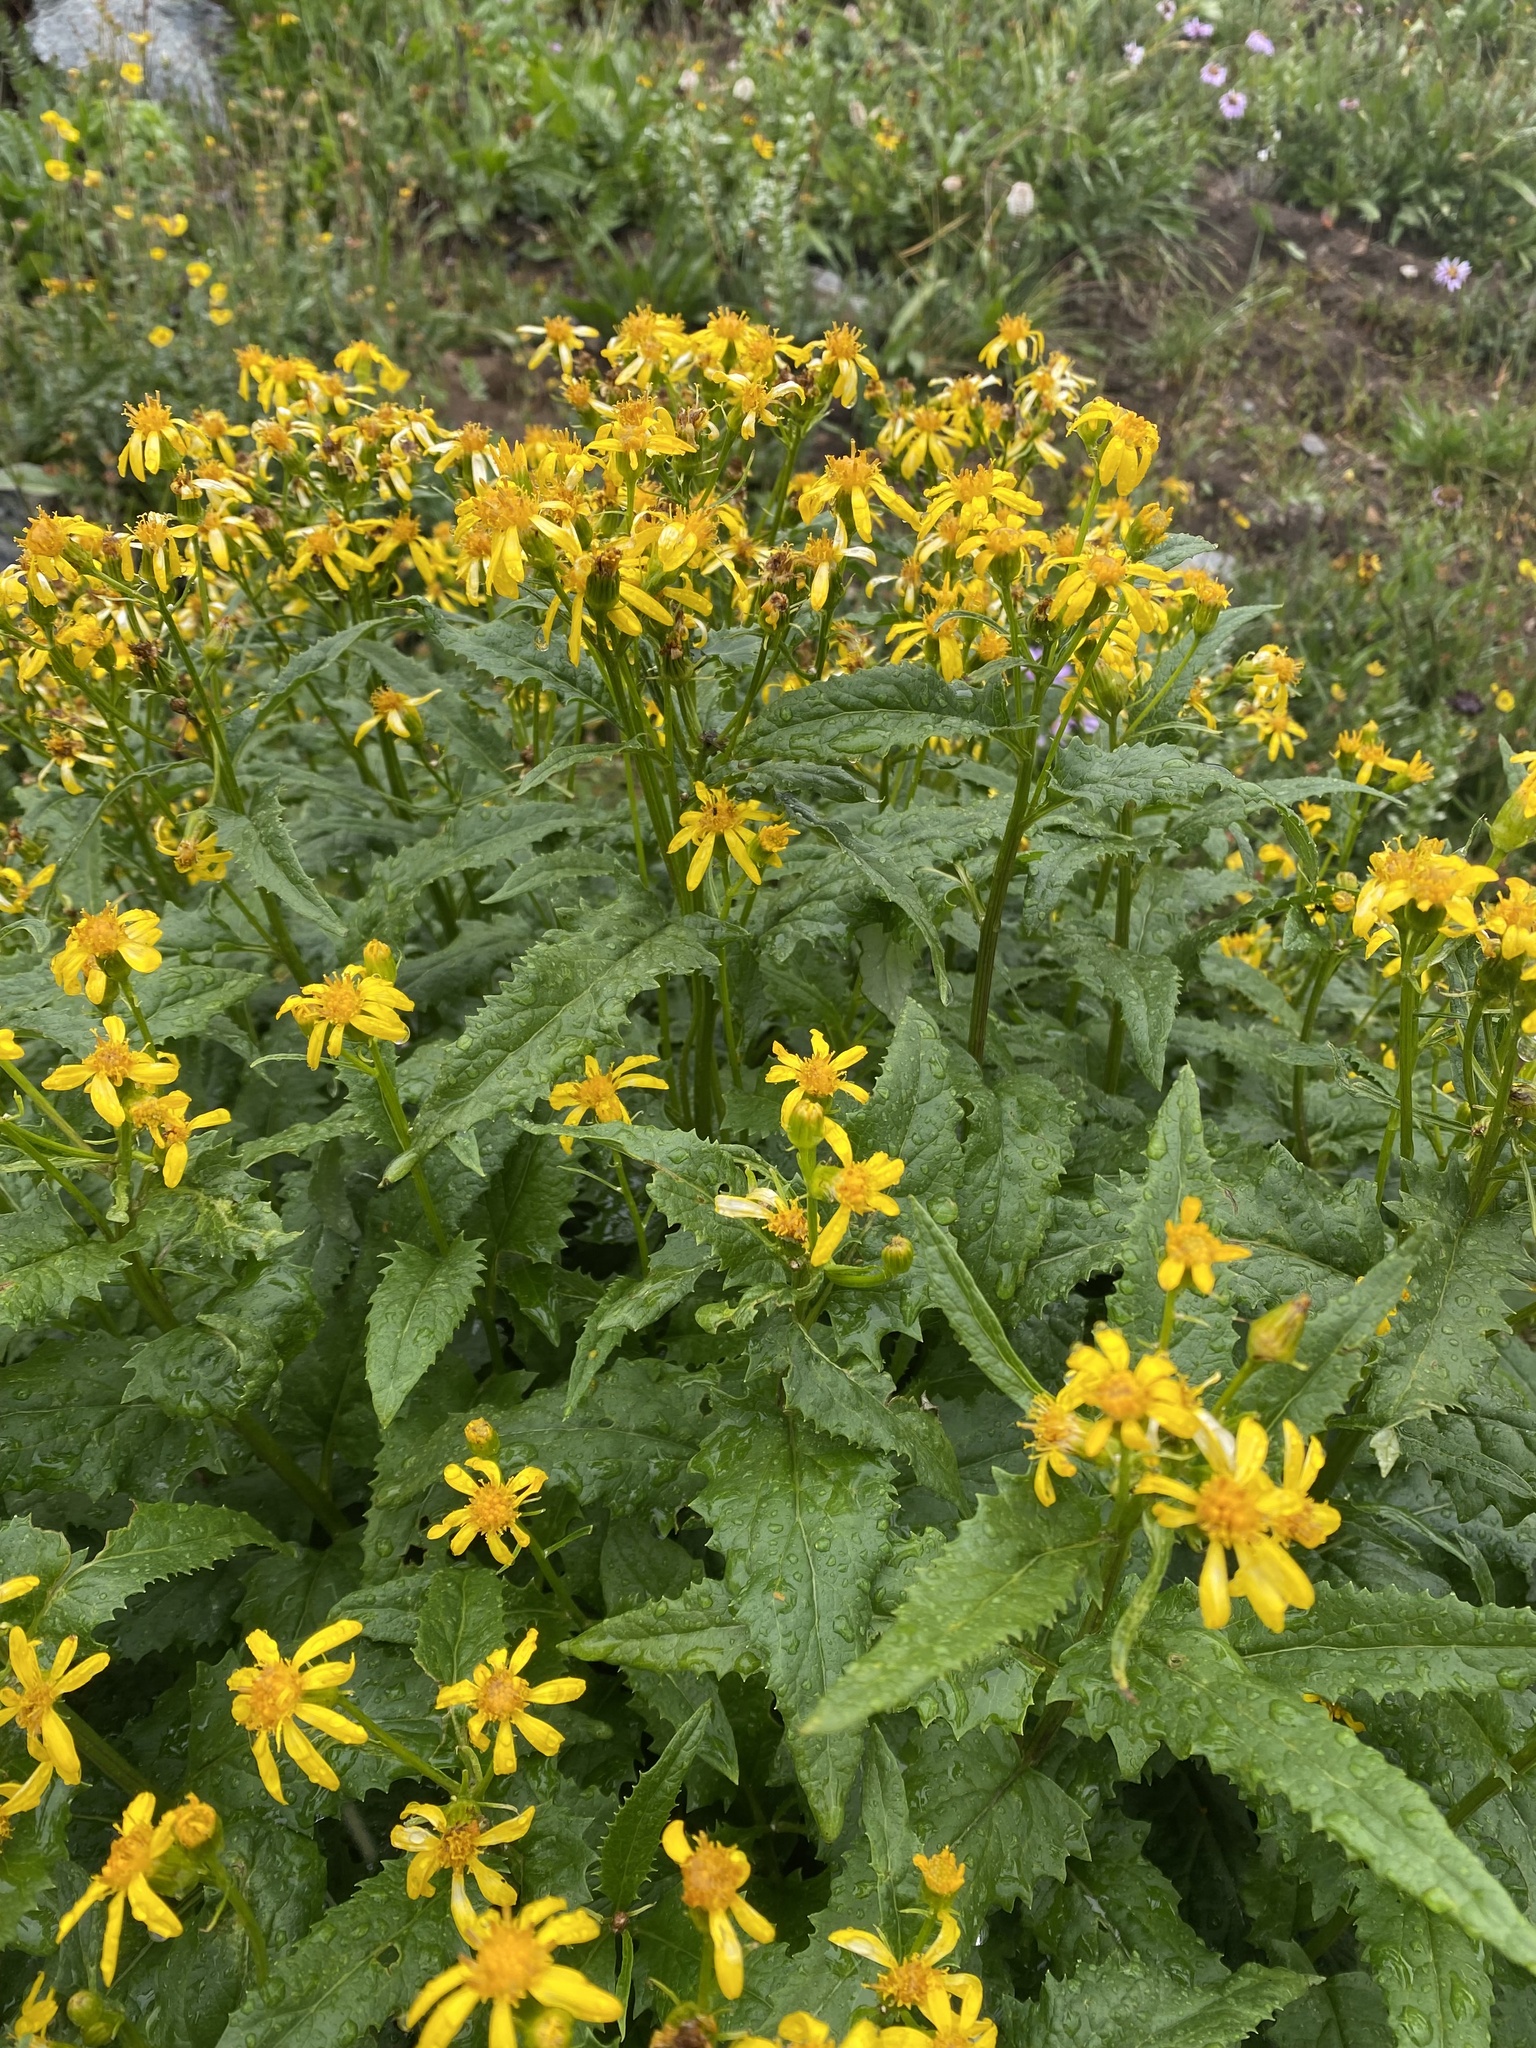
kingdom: Plantae
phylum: Tracheophyta
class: Magnoliopsida
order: Asterales
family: Asteraceae
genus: Senecio
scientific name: Senecio triangularis
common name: Arrowleaf butterweed
